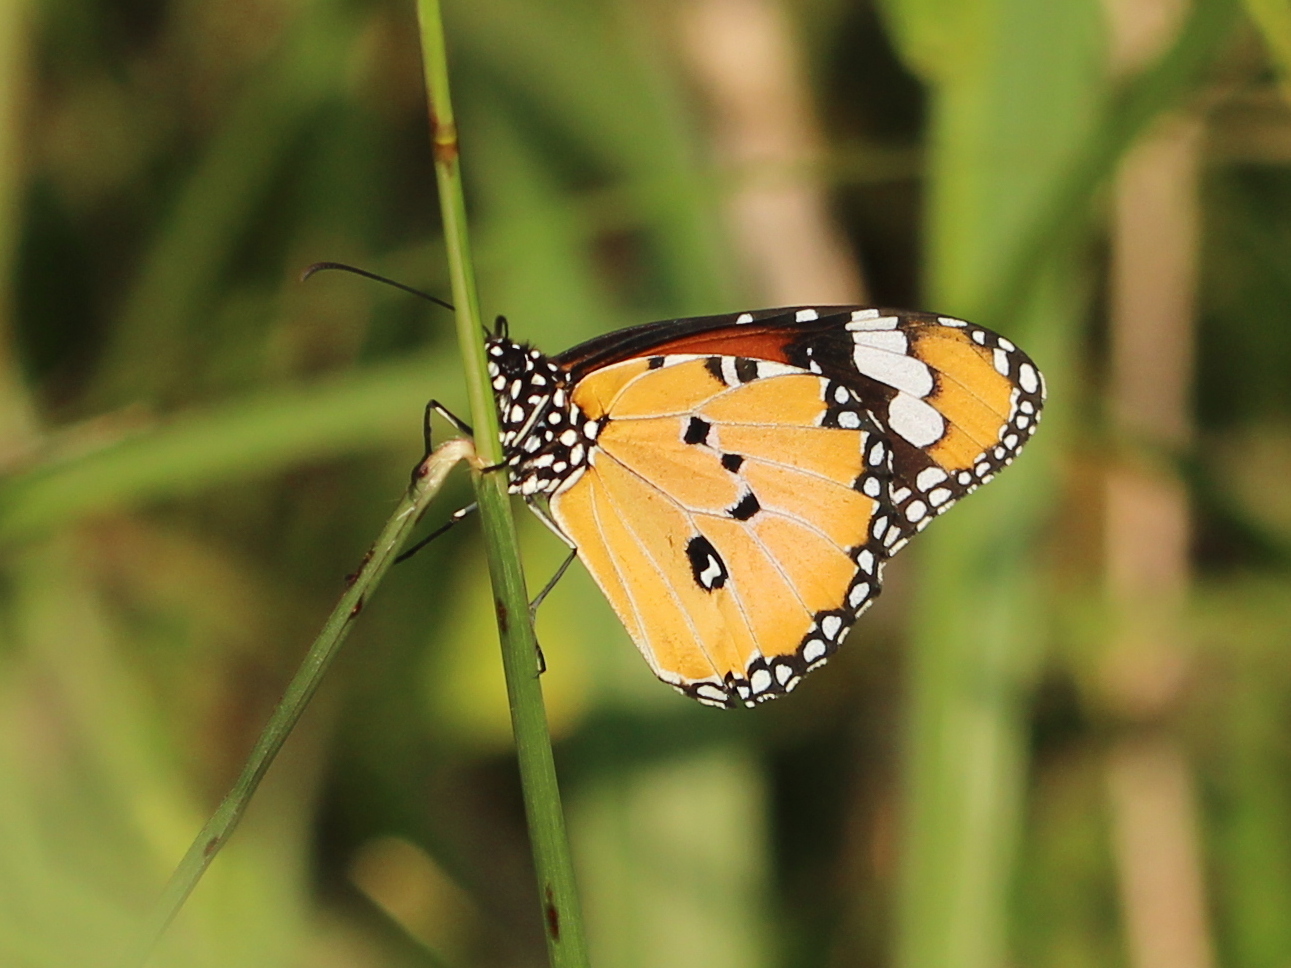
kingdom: Animalia
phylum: Arthropoda
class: Insecta
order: Lepidoptera
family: Nymphalidae
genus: Danaus
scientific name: Danaus chrysippus
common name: Plain tiger
